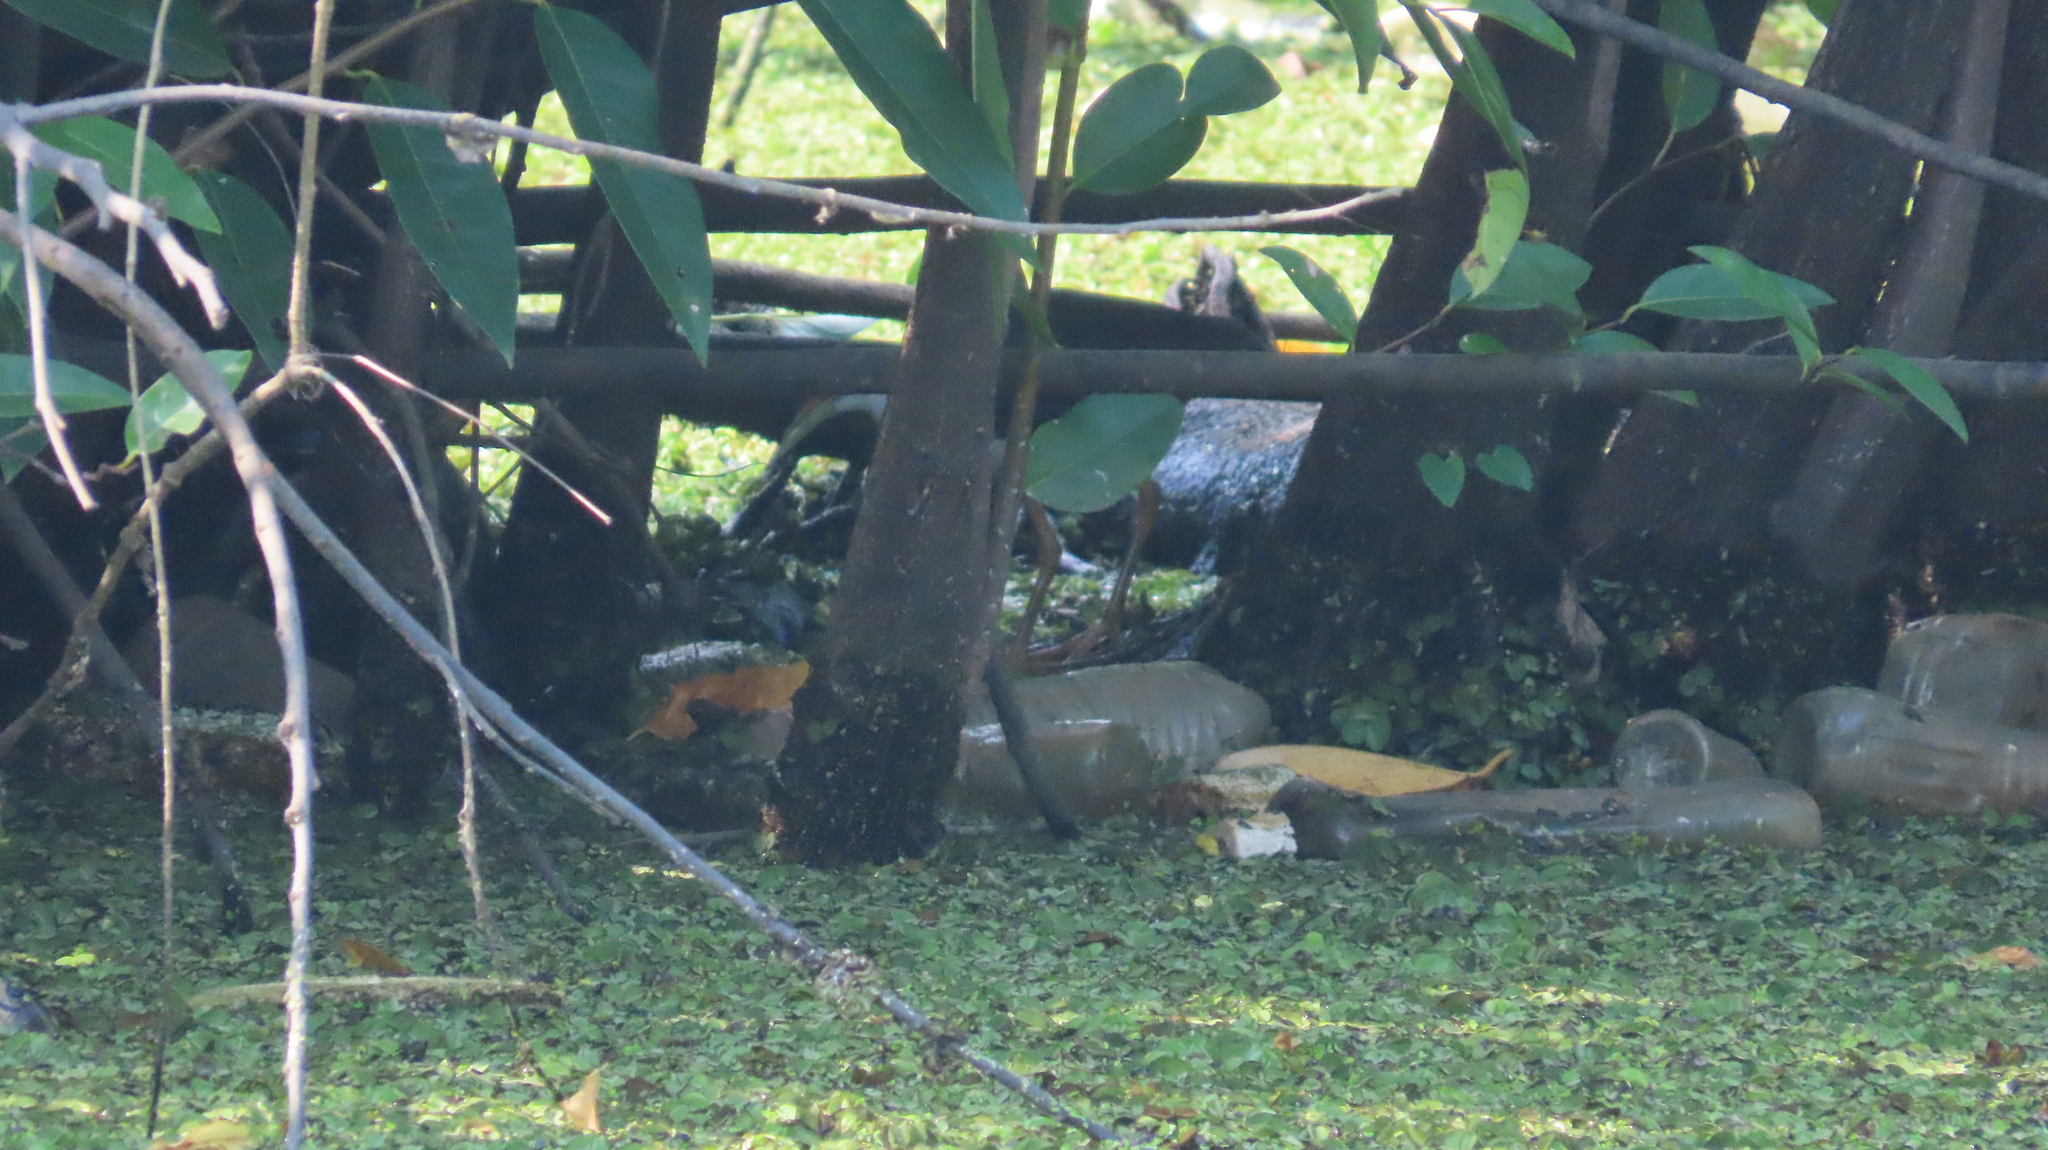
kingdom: Animalia
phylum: Chordata
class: Aves
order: Gruiformes
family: Rallidae
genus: Amaurornis
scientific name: Amaurornis phoenicurus
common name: White-breasted waterhen
